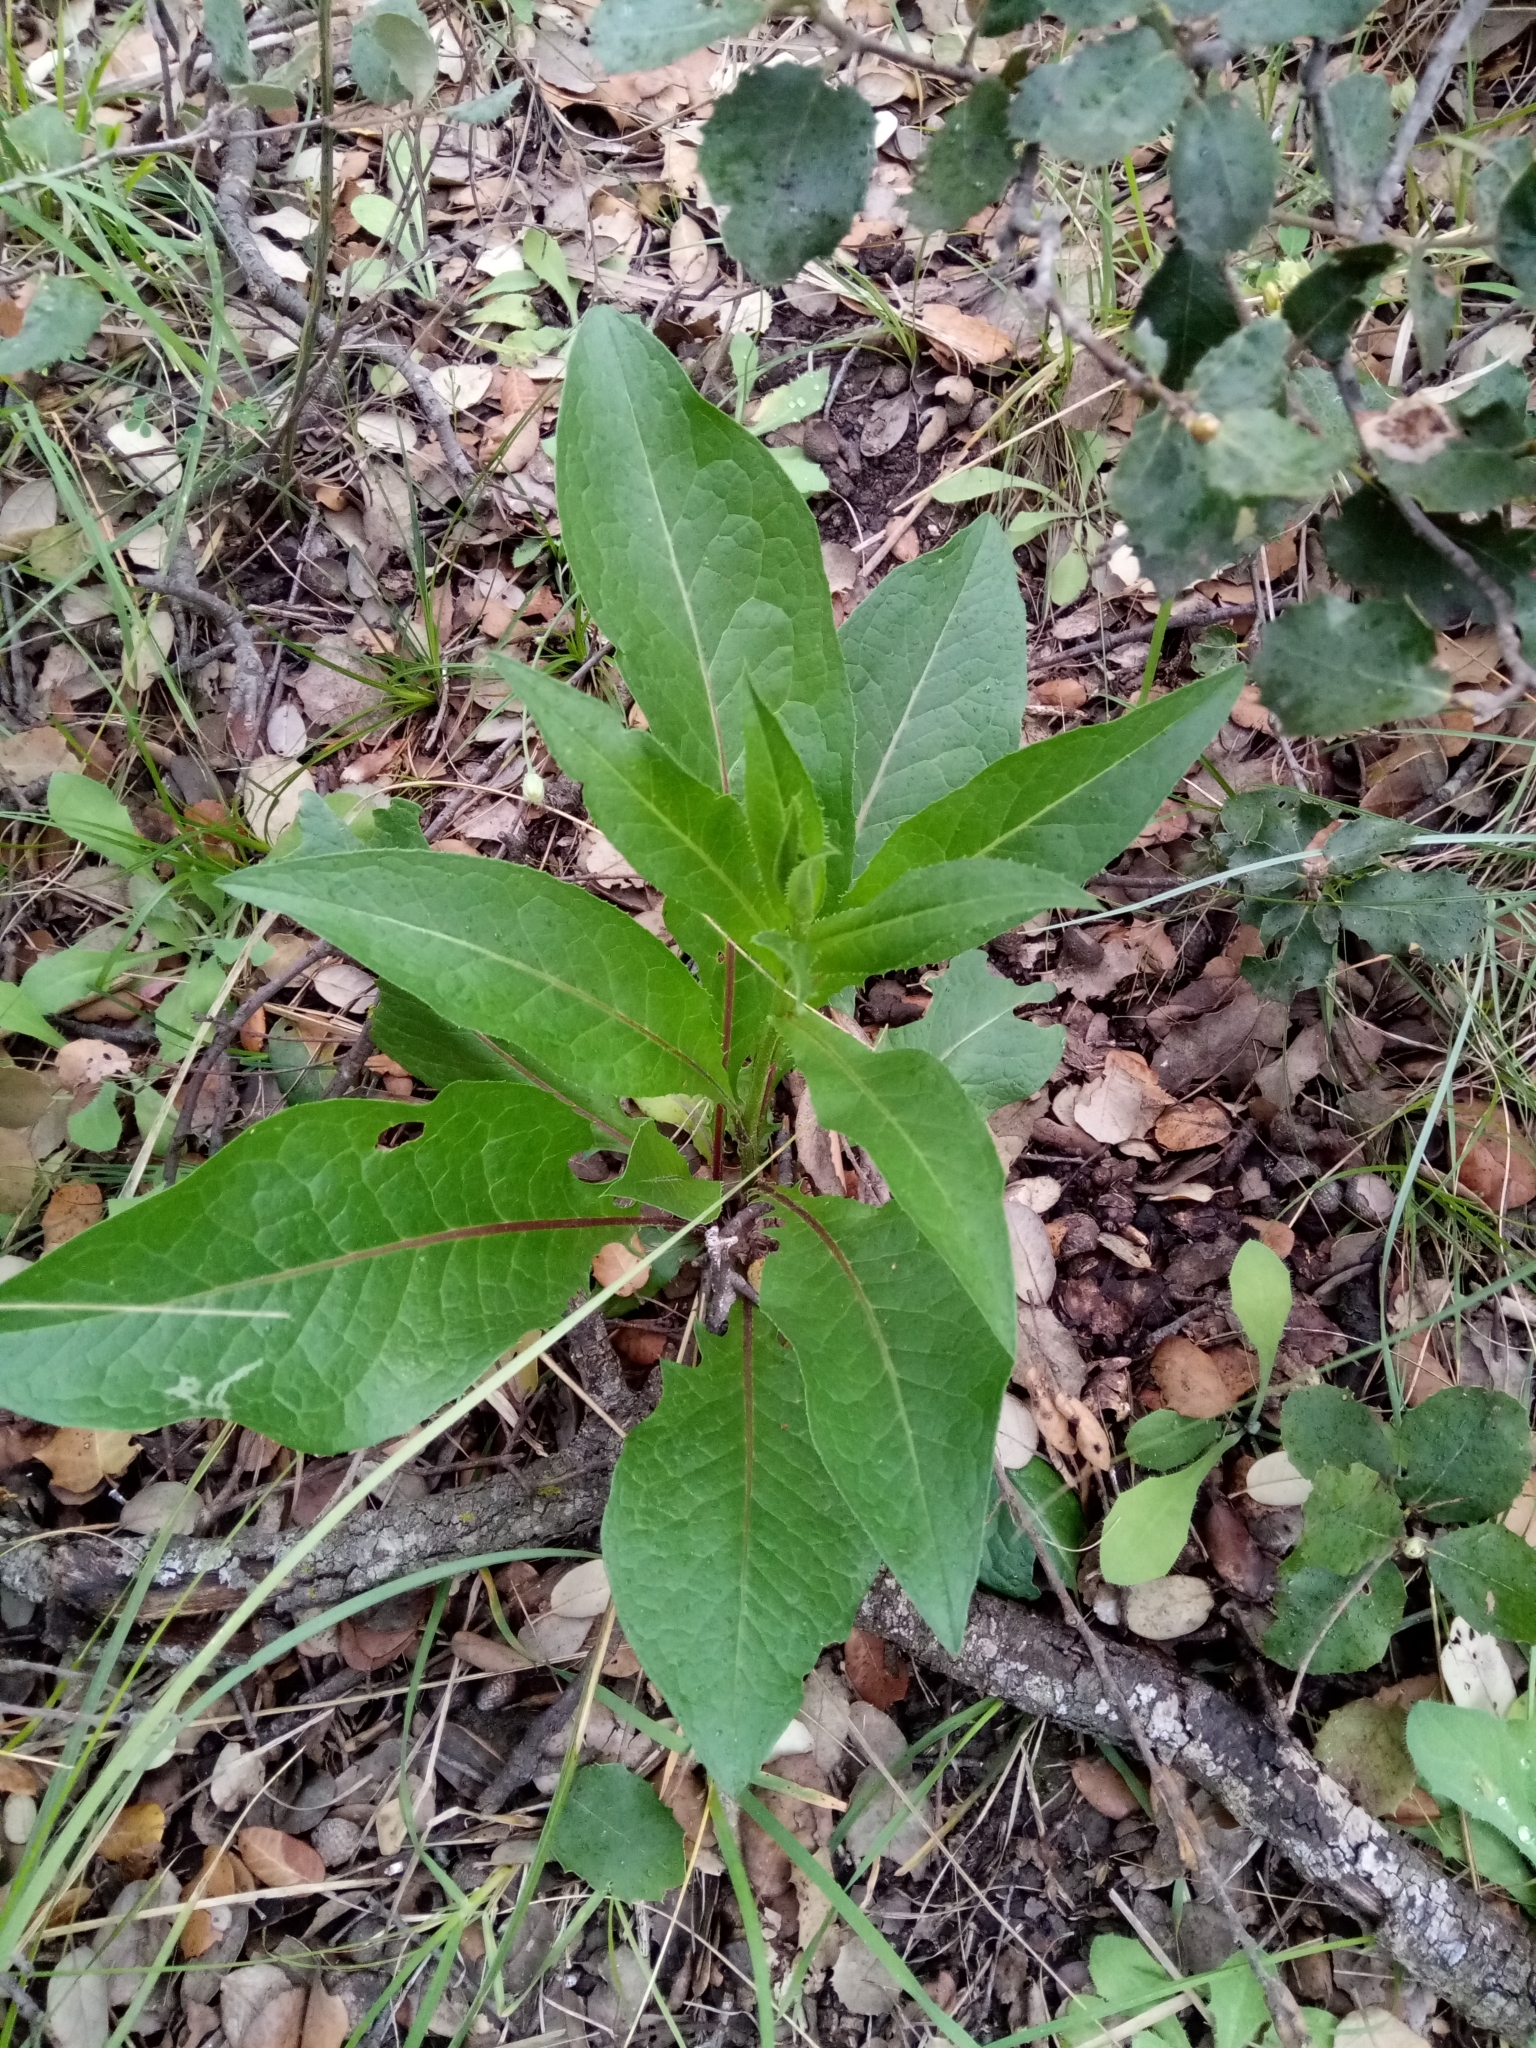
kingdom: Plantae
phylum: Tracheophyta
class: Magnoliopsida
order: Asterales
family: Asteraceae
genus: Klasea
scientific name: Klasea flavescens
